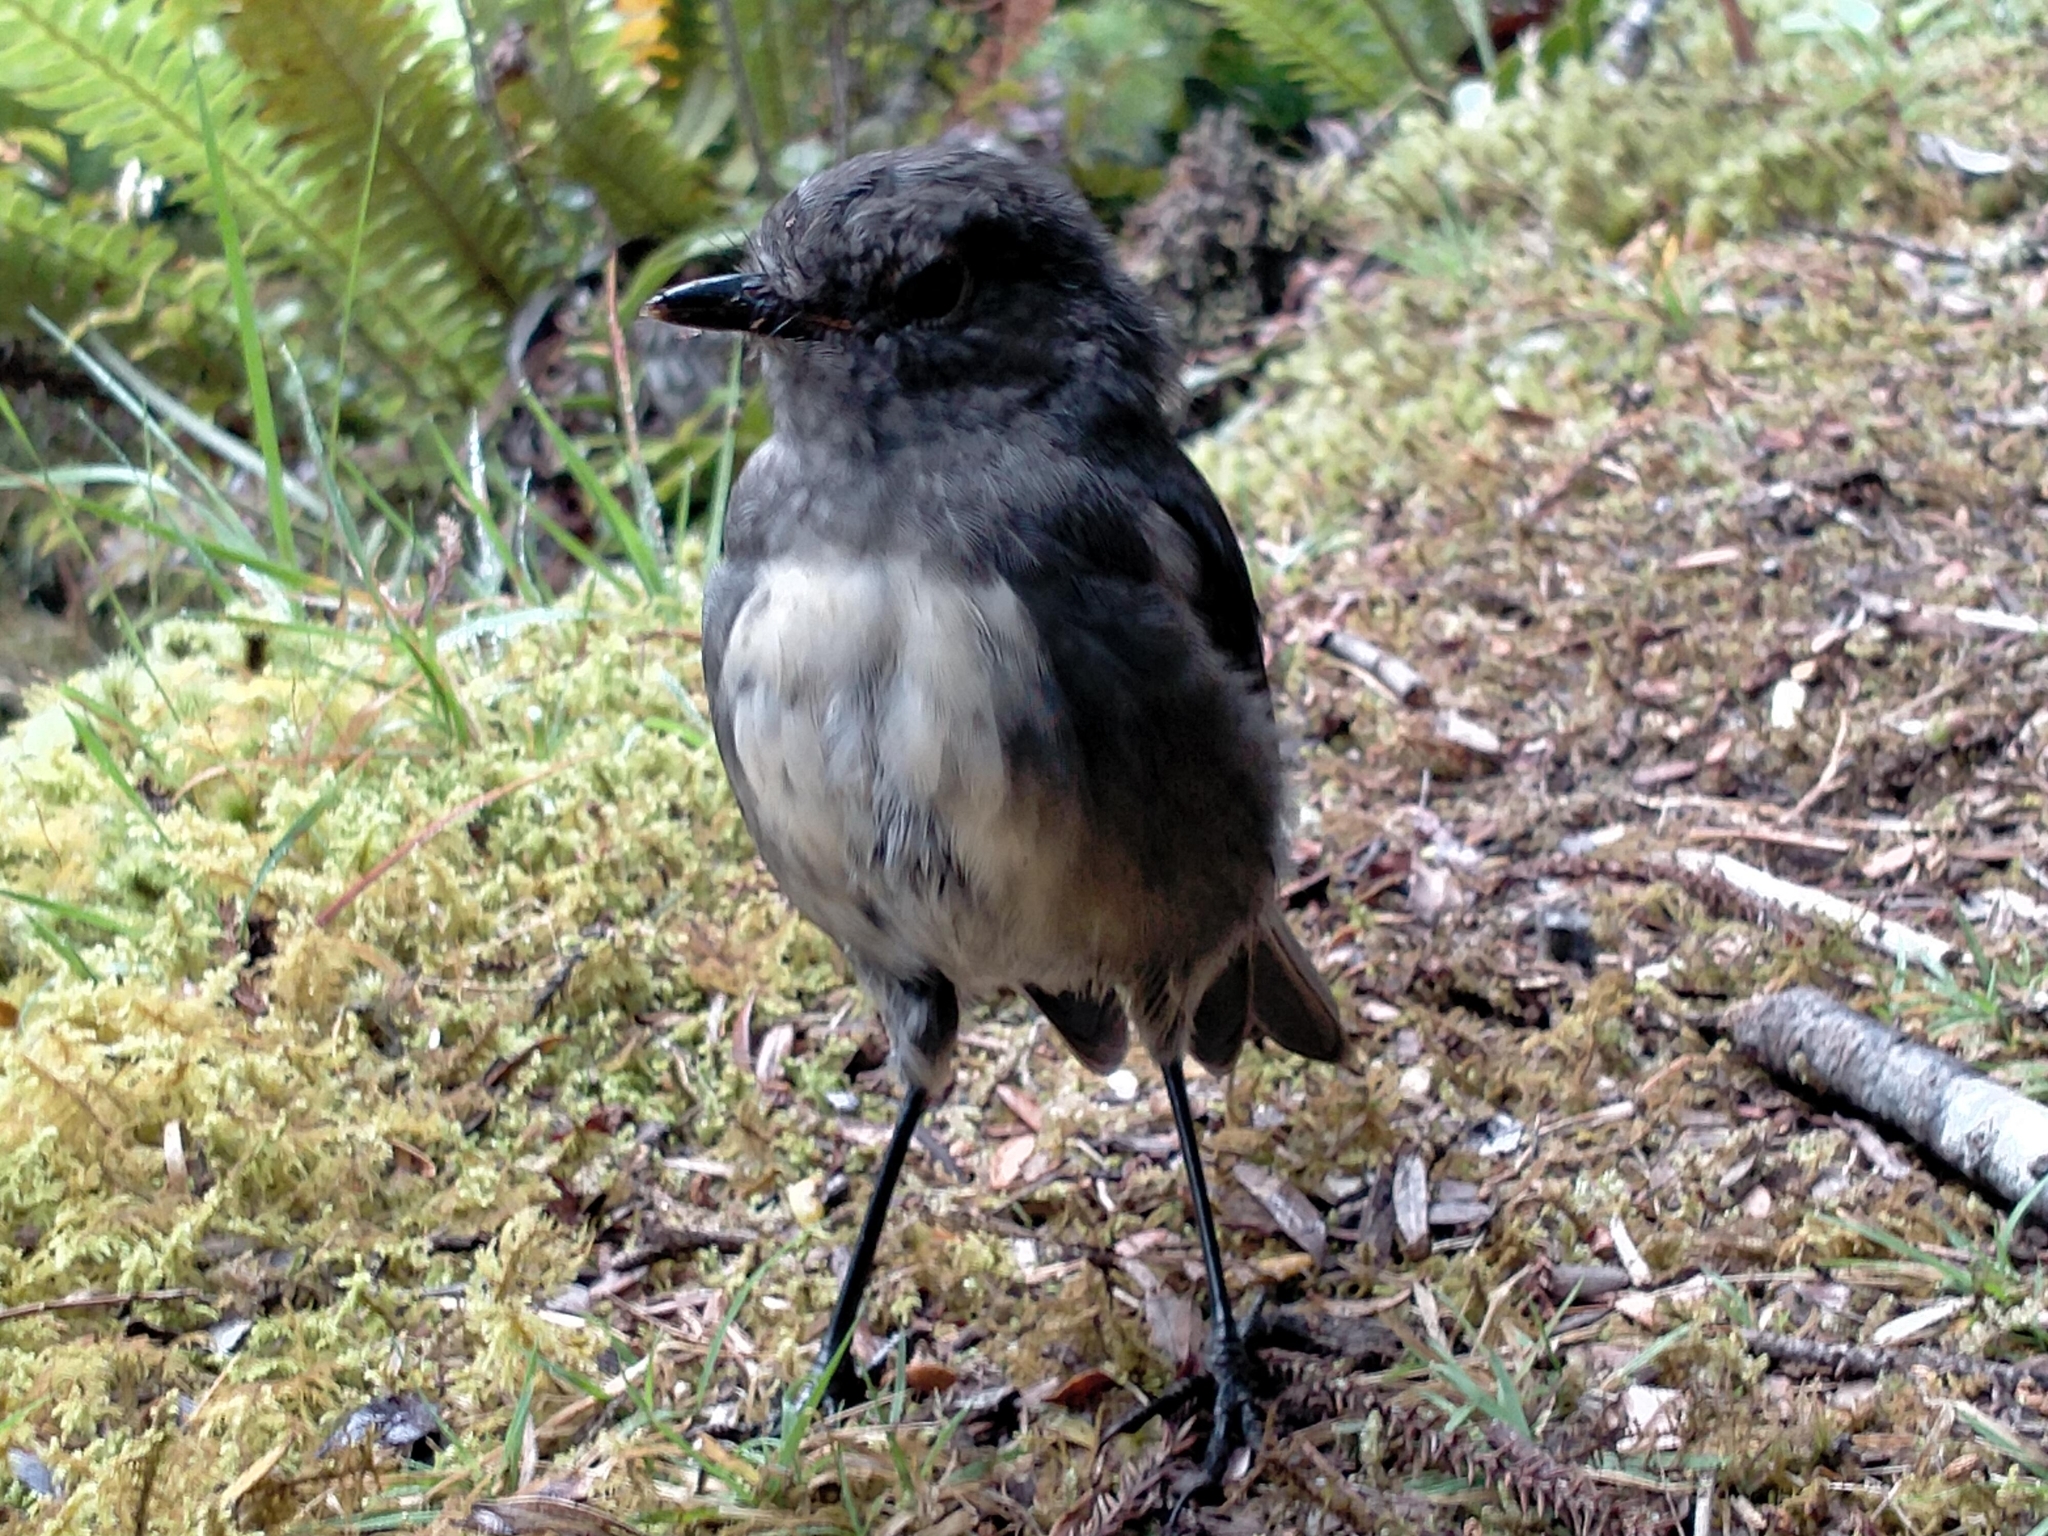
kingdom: Animalia
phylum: Chordata
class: Aves
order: Passeriformes
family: Petroicidae
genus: Petroica
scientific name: Petroica australis
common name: New zealand robin
